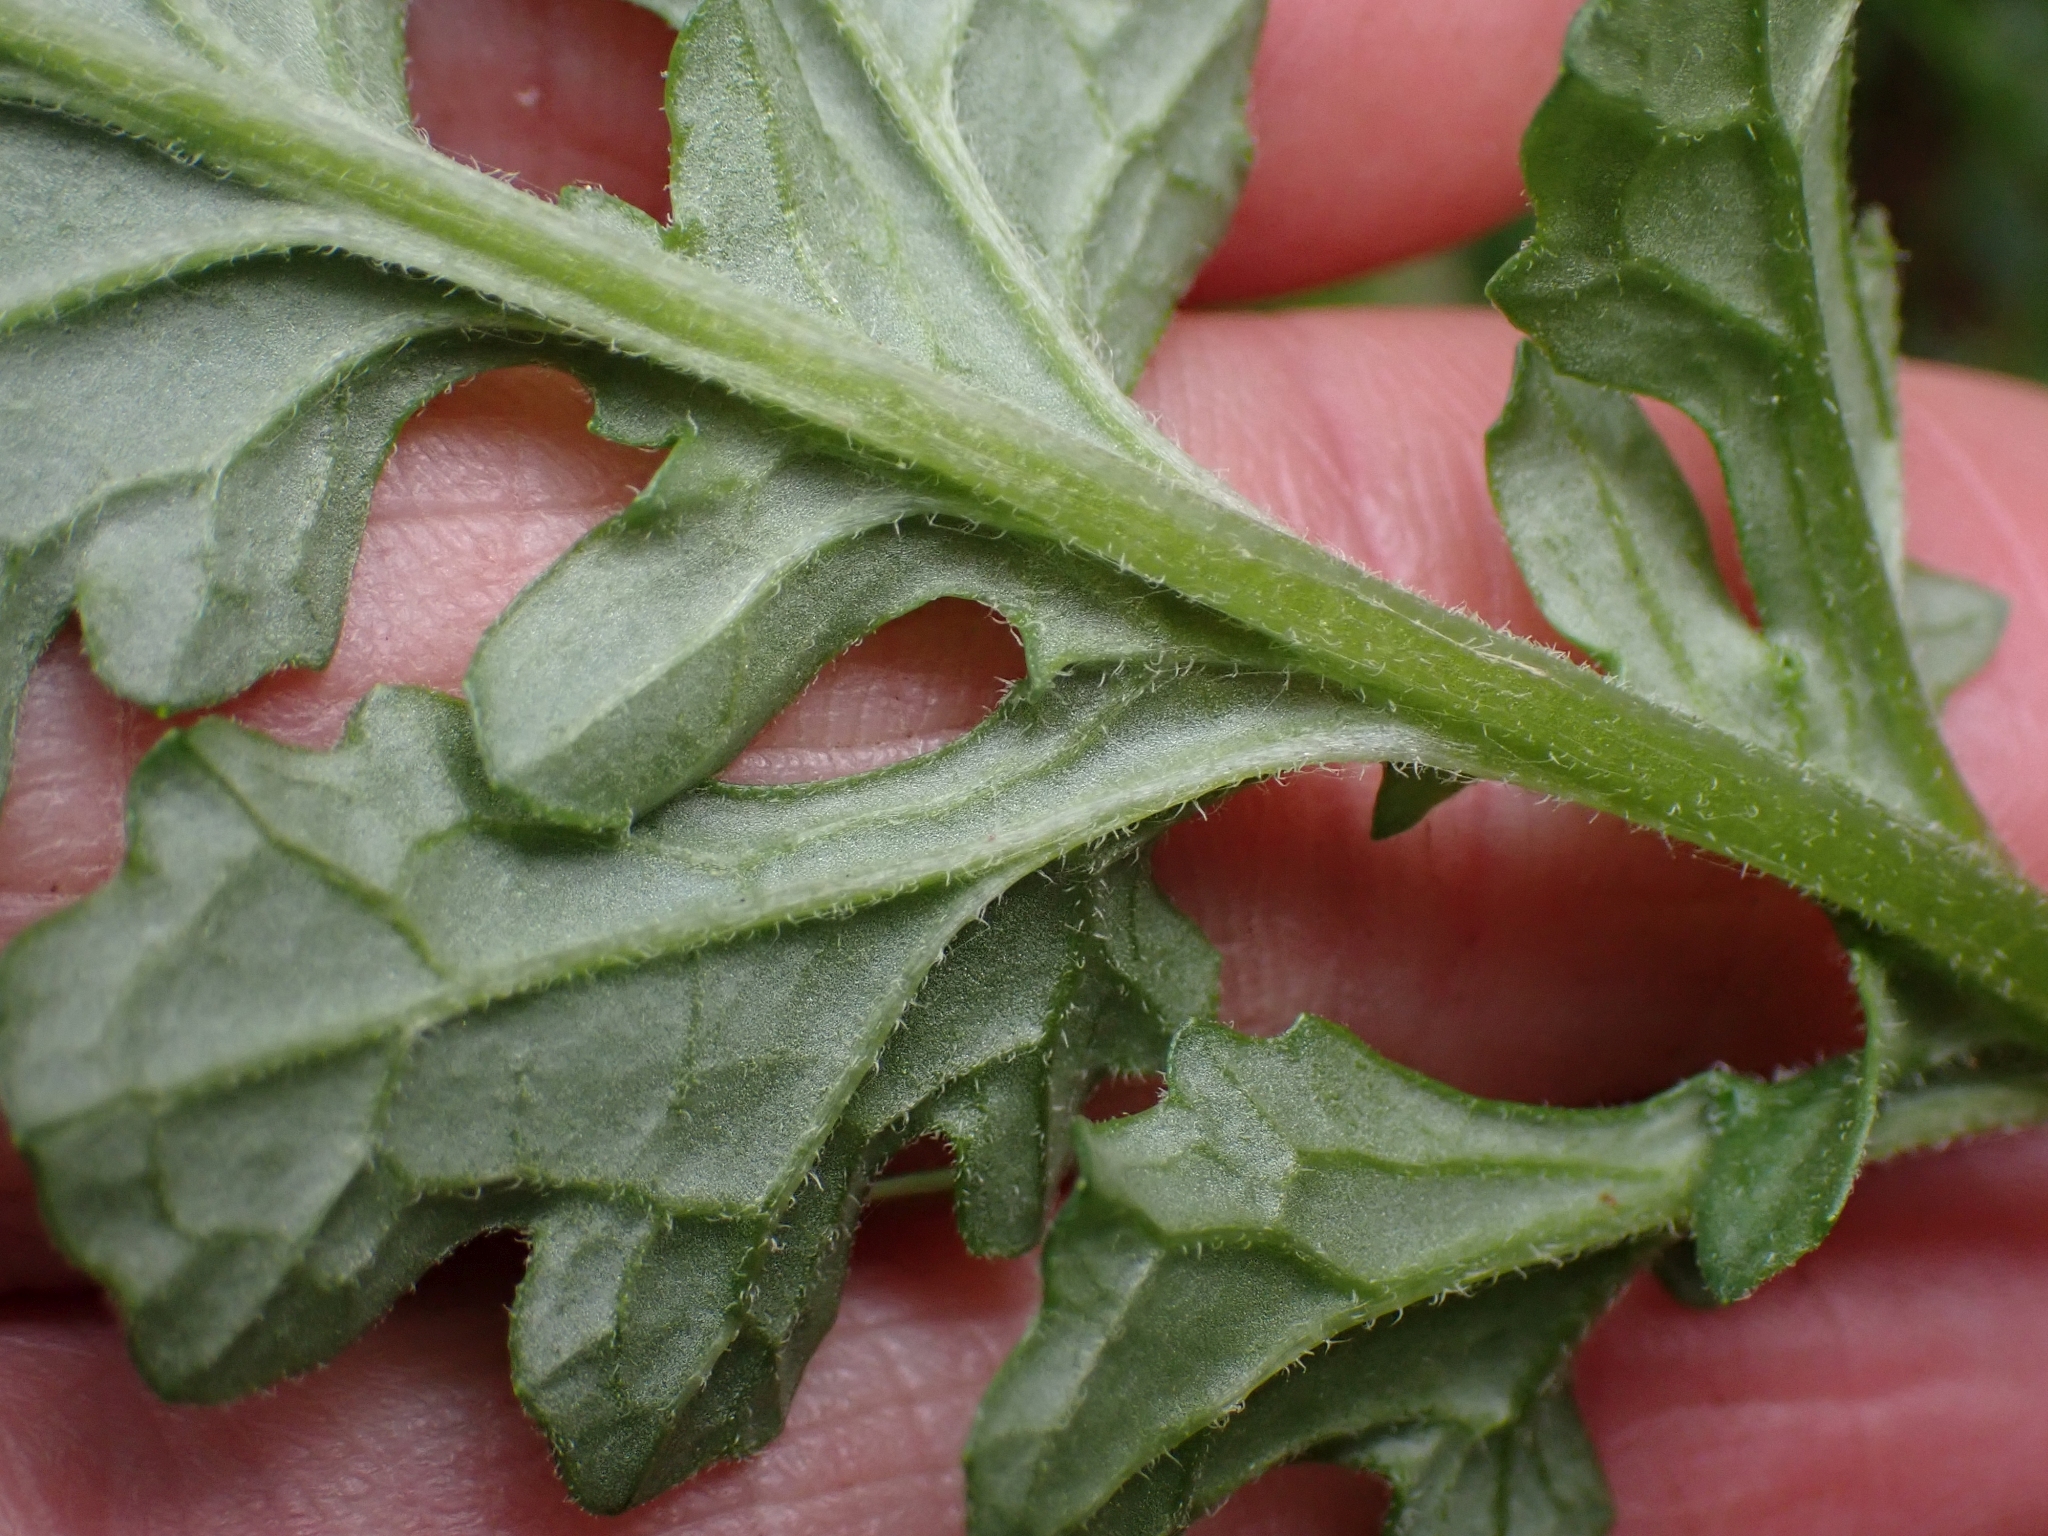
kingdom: Plantae
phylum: Tracheophyta
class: Magnoliopsida
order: Asterales
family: Asteraceae
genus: Jacobaea
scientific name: Jacobaea vulgaris
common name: Stinking willie
